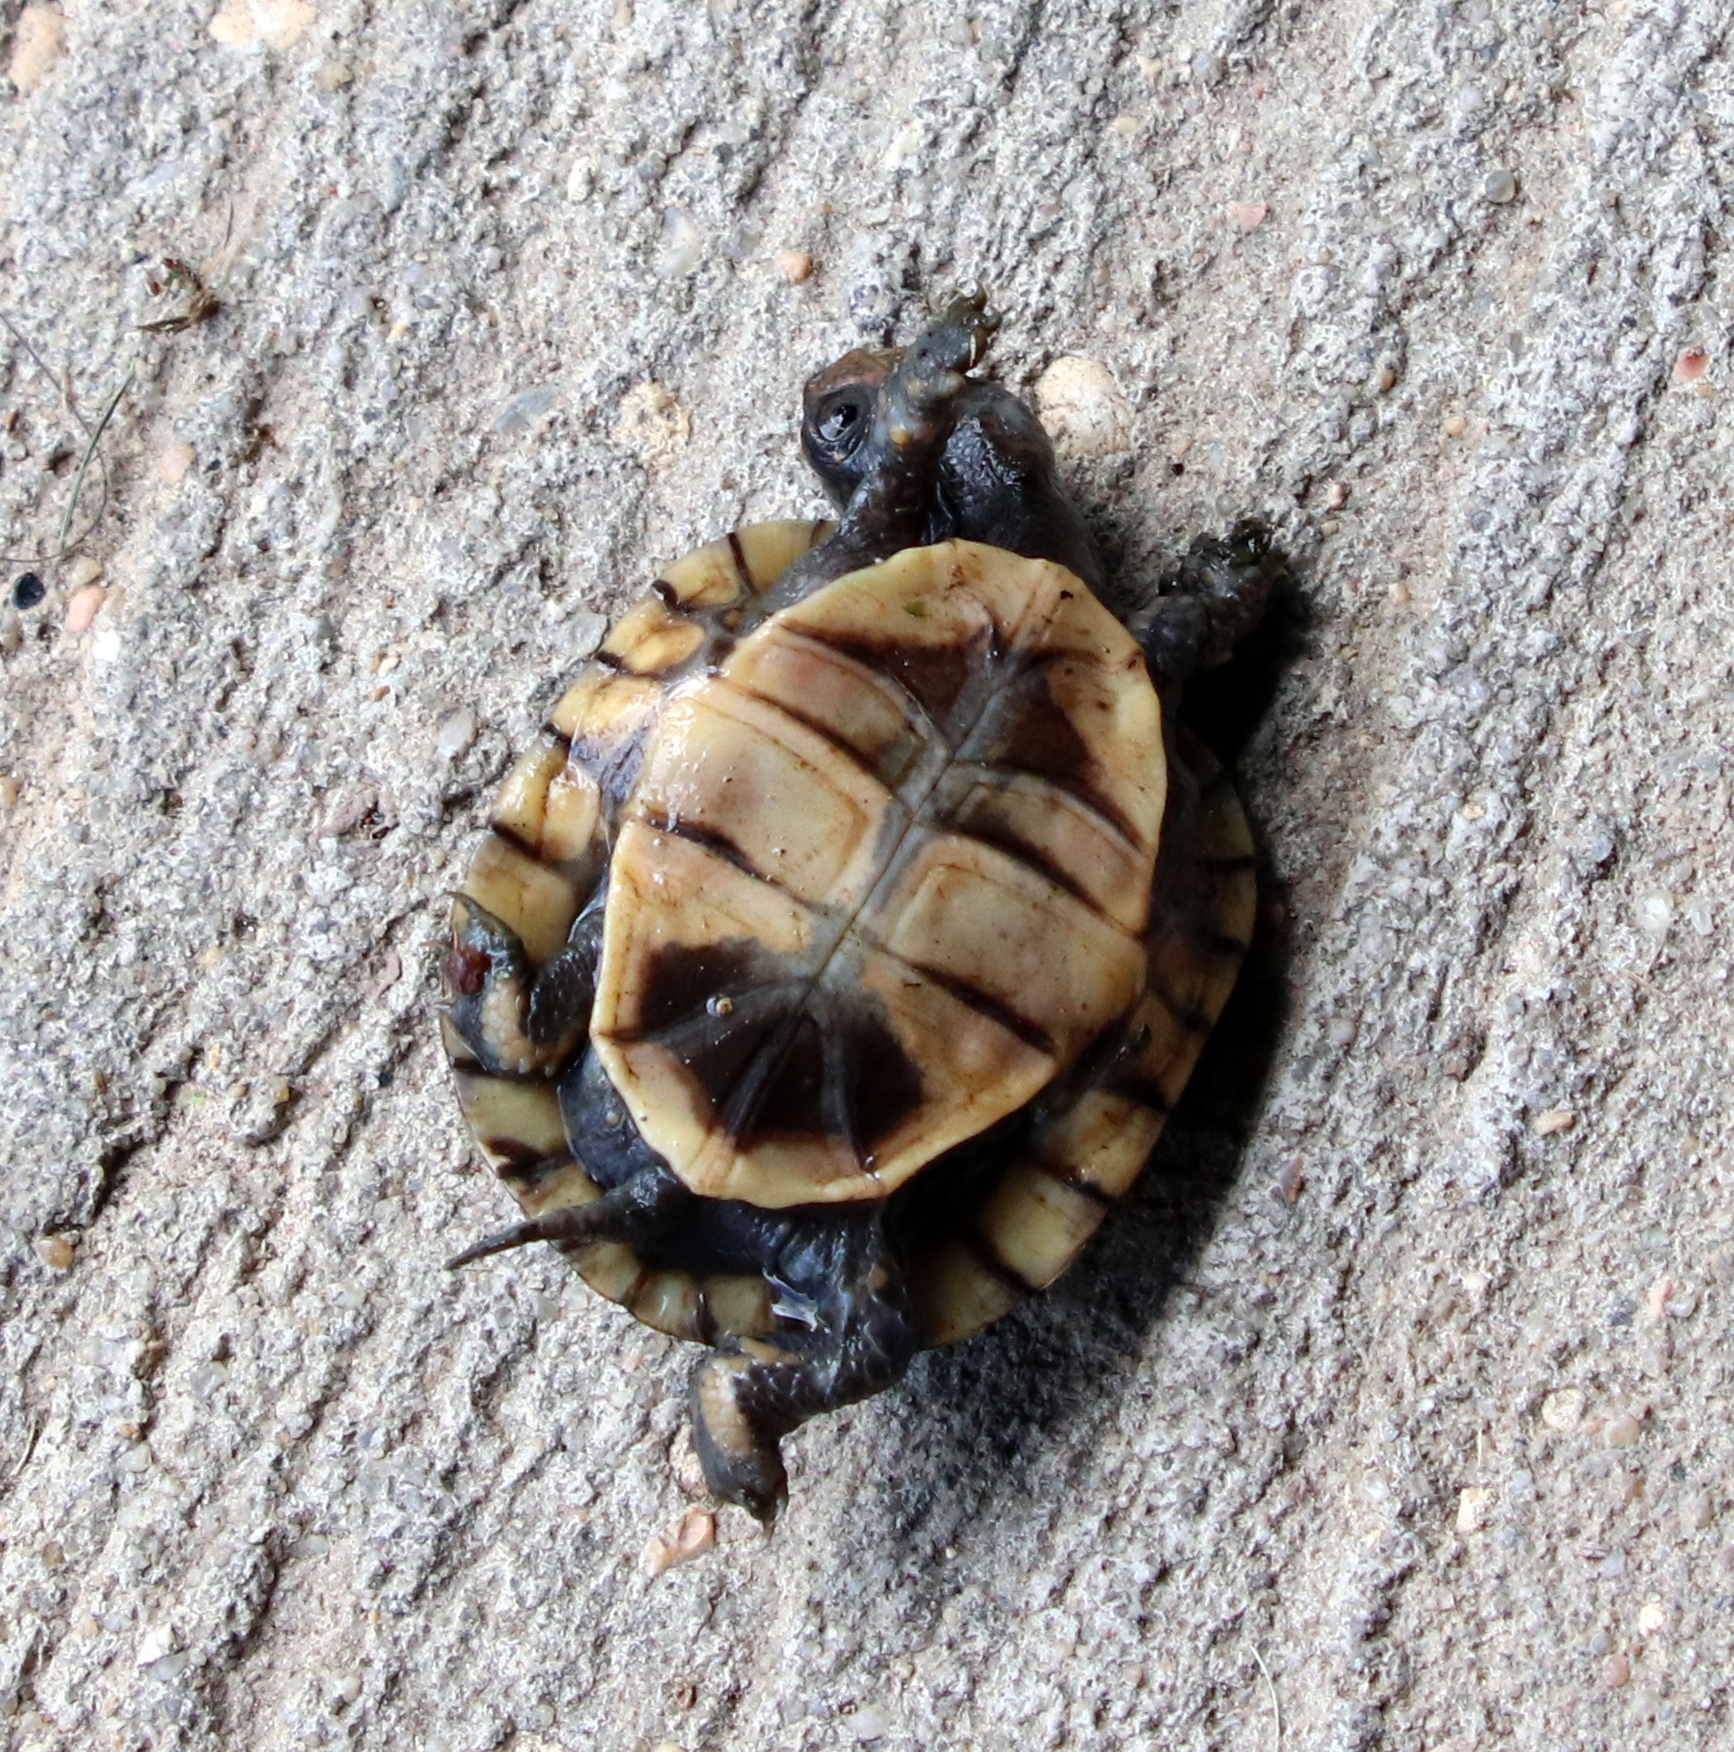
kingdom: Animalia
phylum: Chordata
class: Testudines
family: Emydidae
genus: Terrapene
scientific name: Terrapene carolina
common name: Common box turtle
